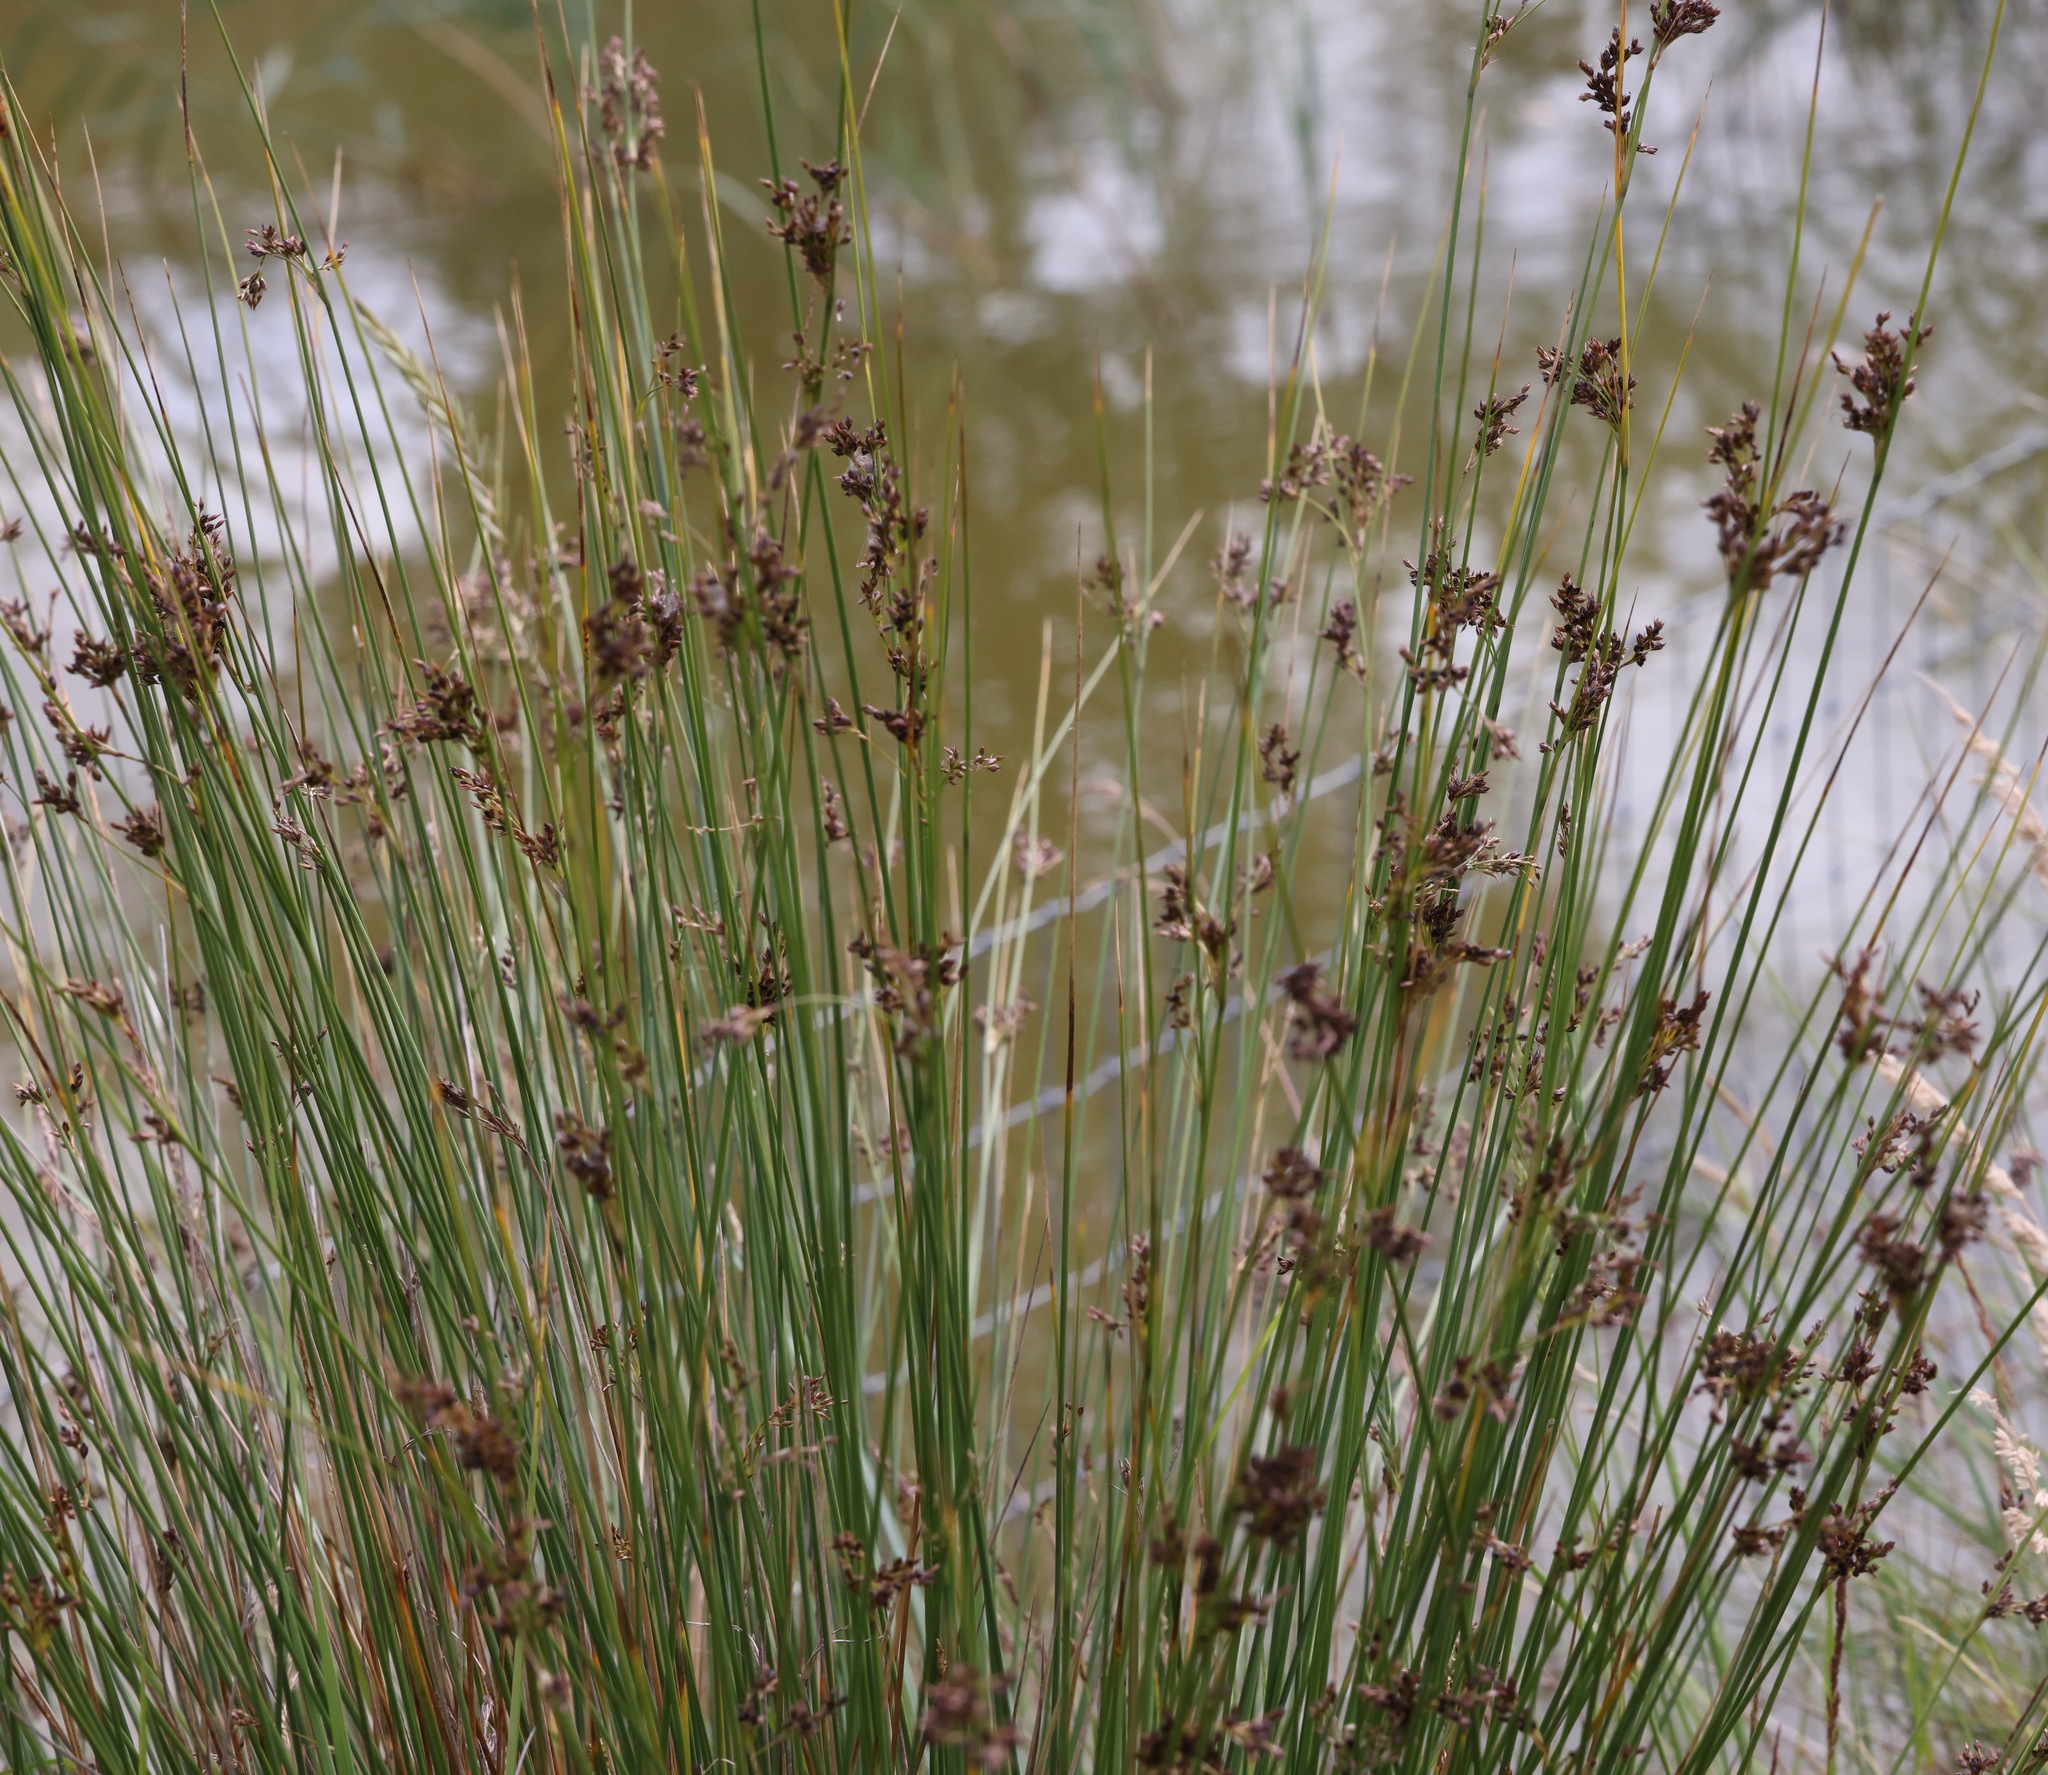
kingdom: Plantae
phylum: Tracheophyta
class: Liliopsida
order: Poales
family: Juncaceae
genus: Juncus
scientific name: Juncus inflexus
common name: Hard rush
